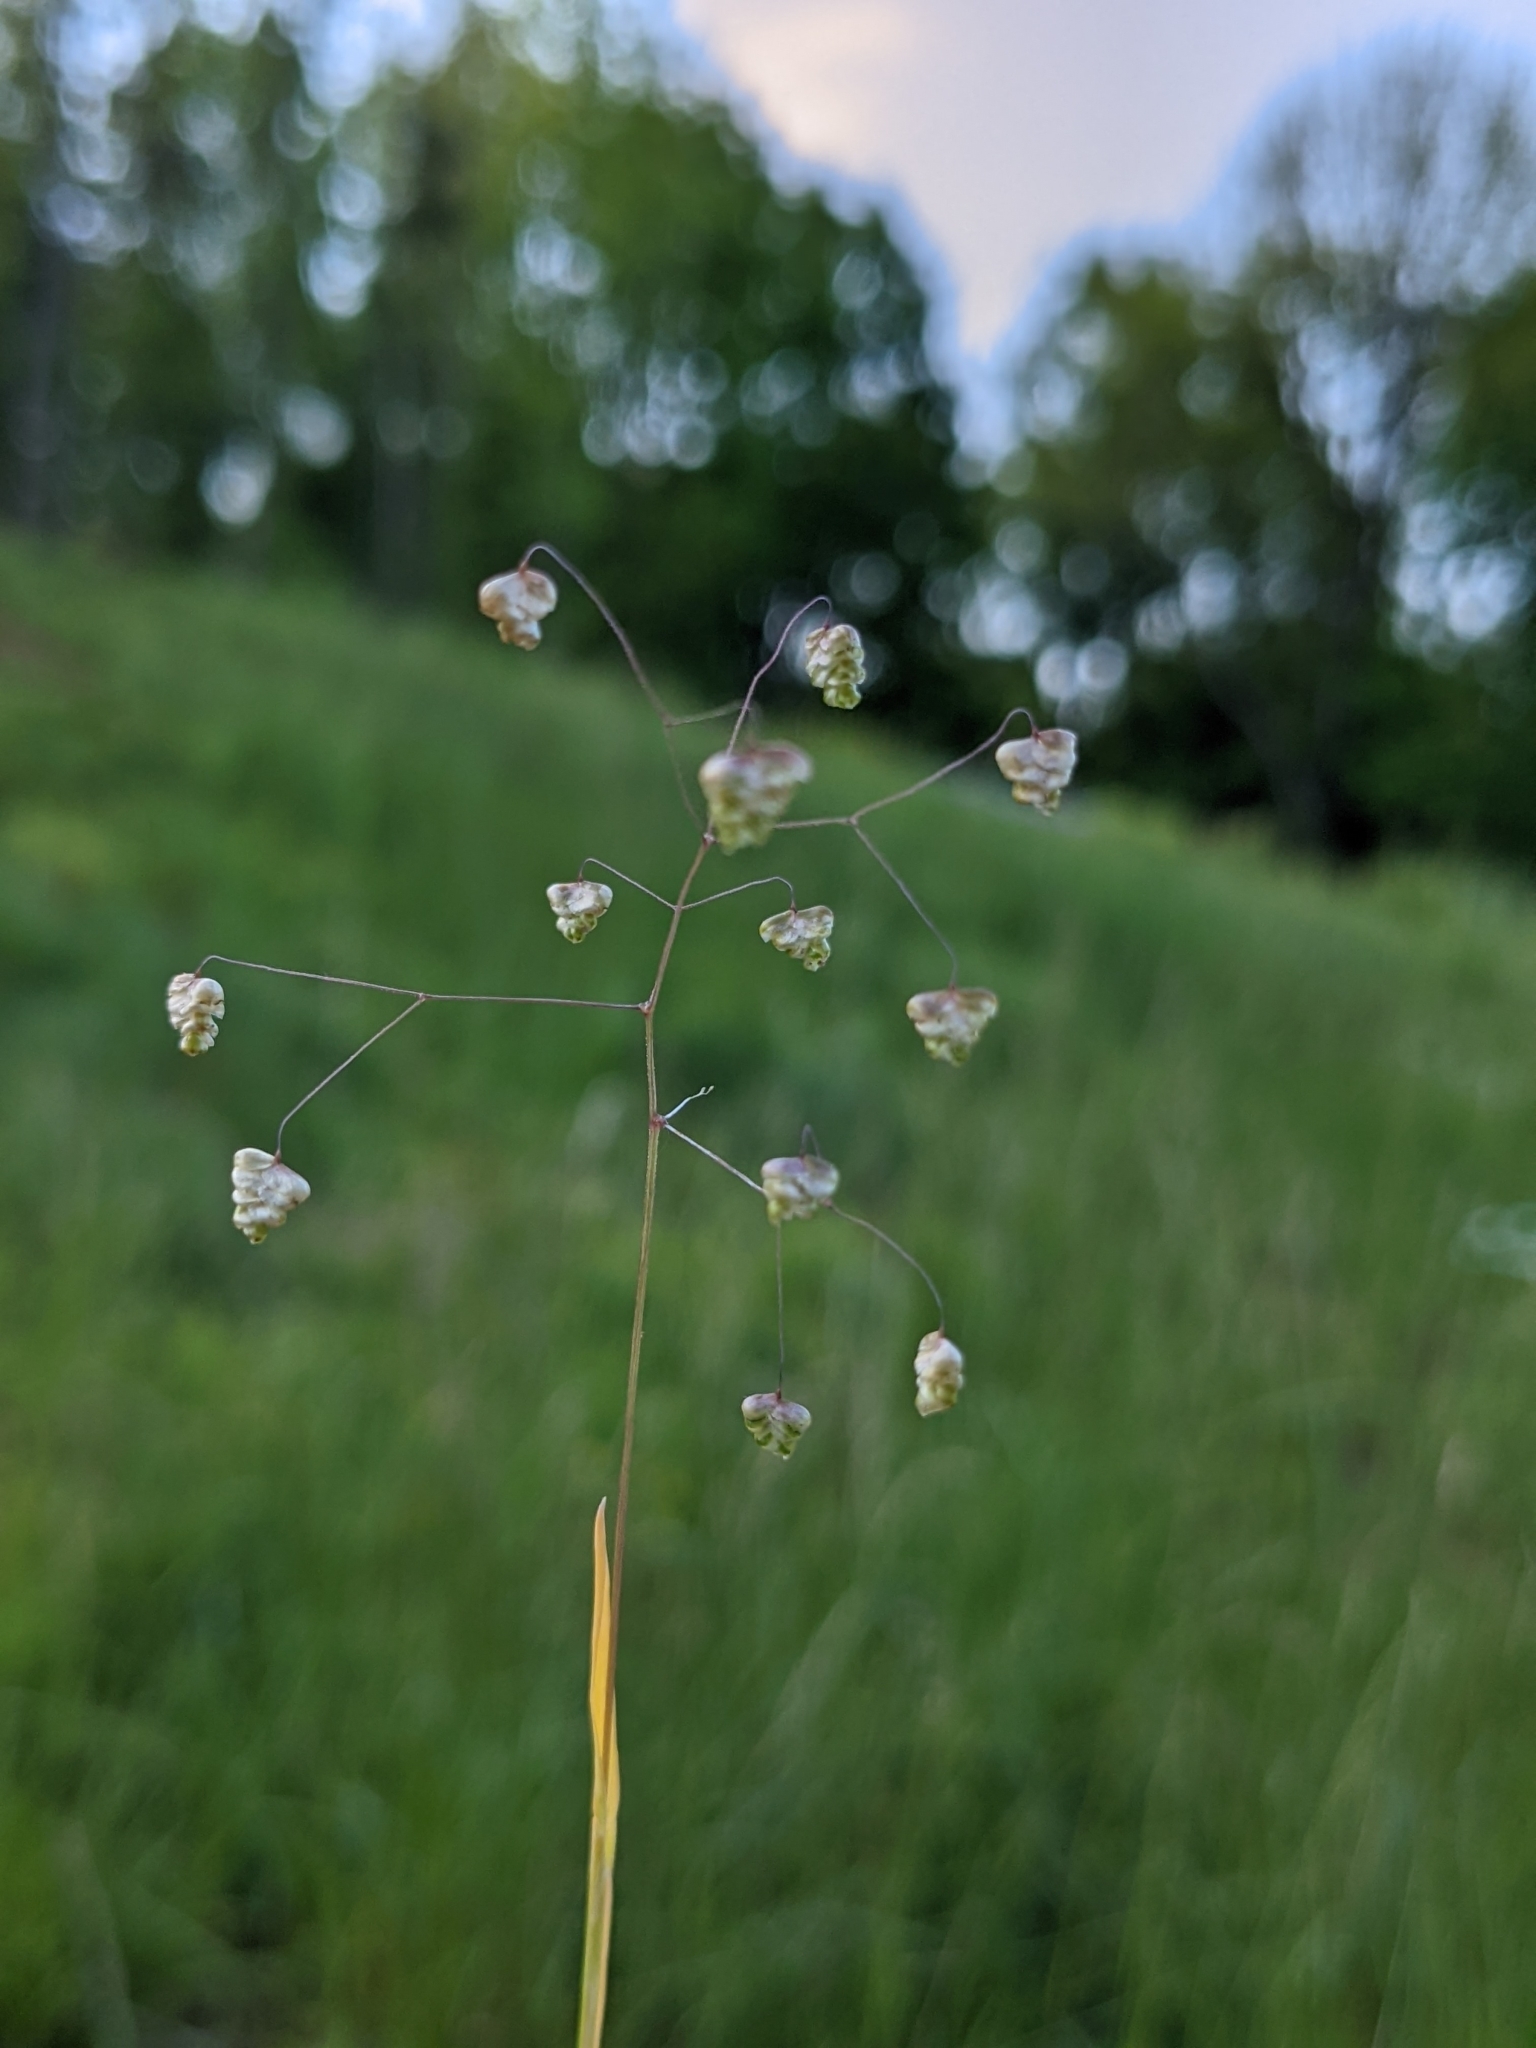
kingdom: Plantae
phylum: Tracheophyta
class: Liliopsida
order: Poales
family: Poaceae
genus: Briza
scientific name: Briza minor
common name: Lesser quaking-grass
